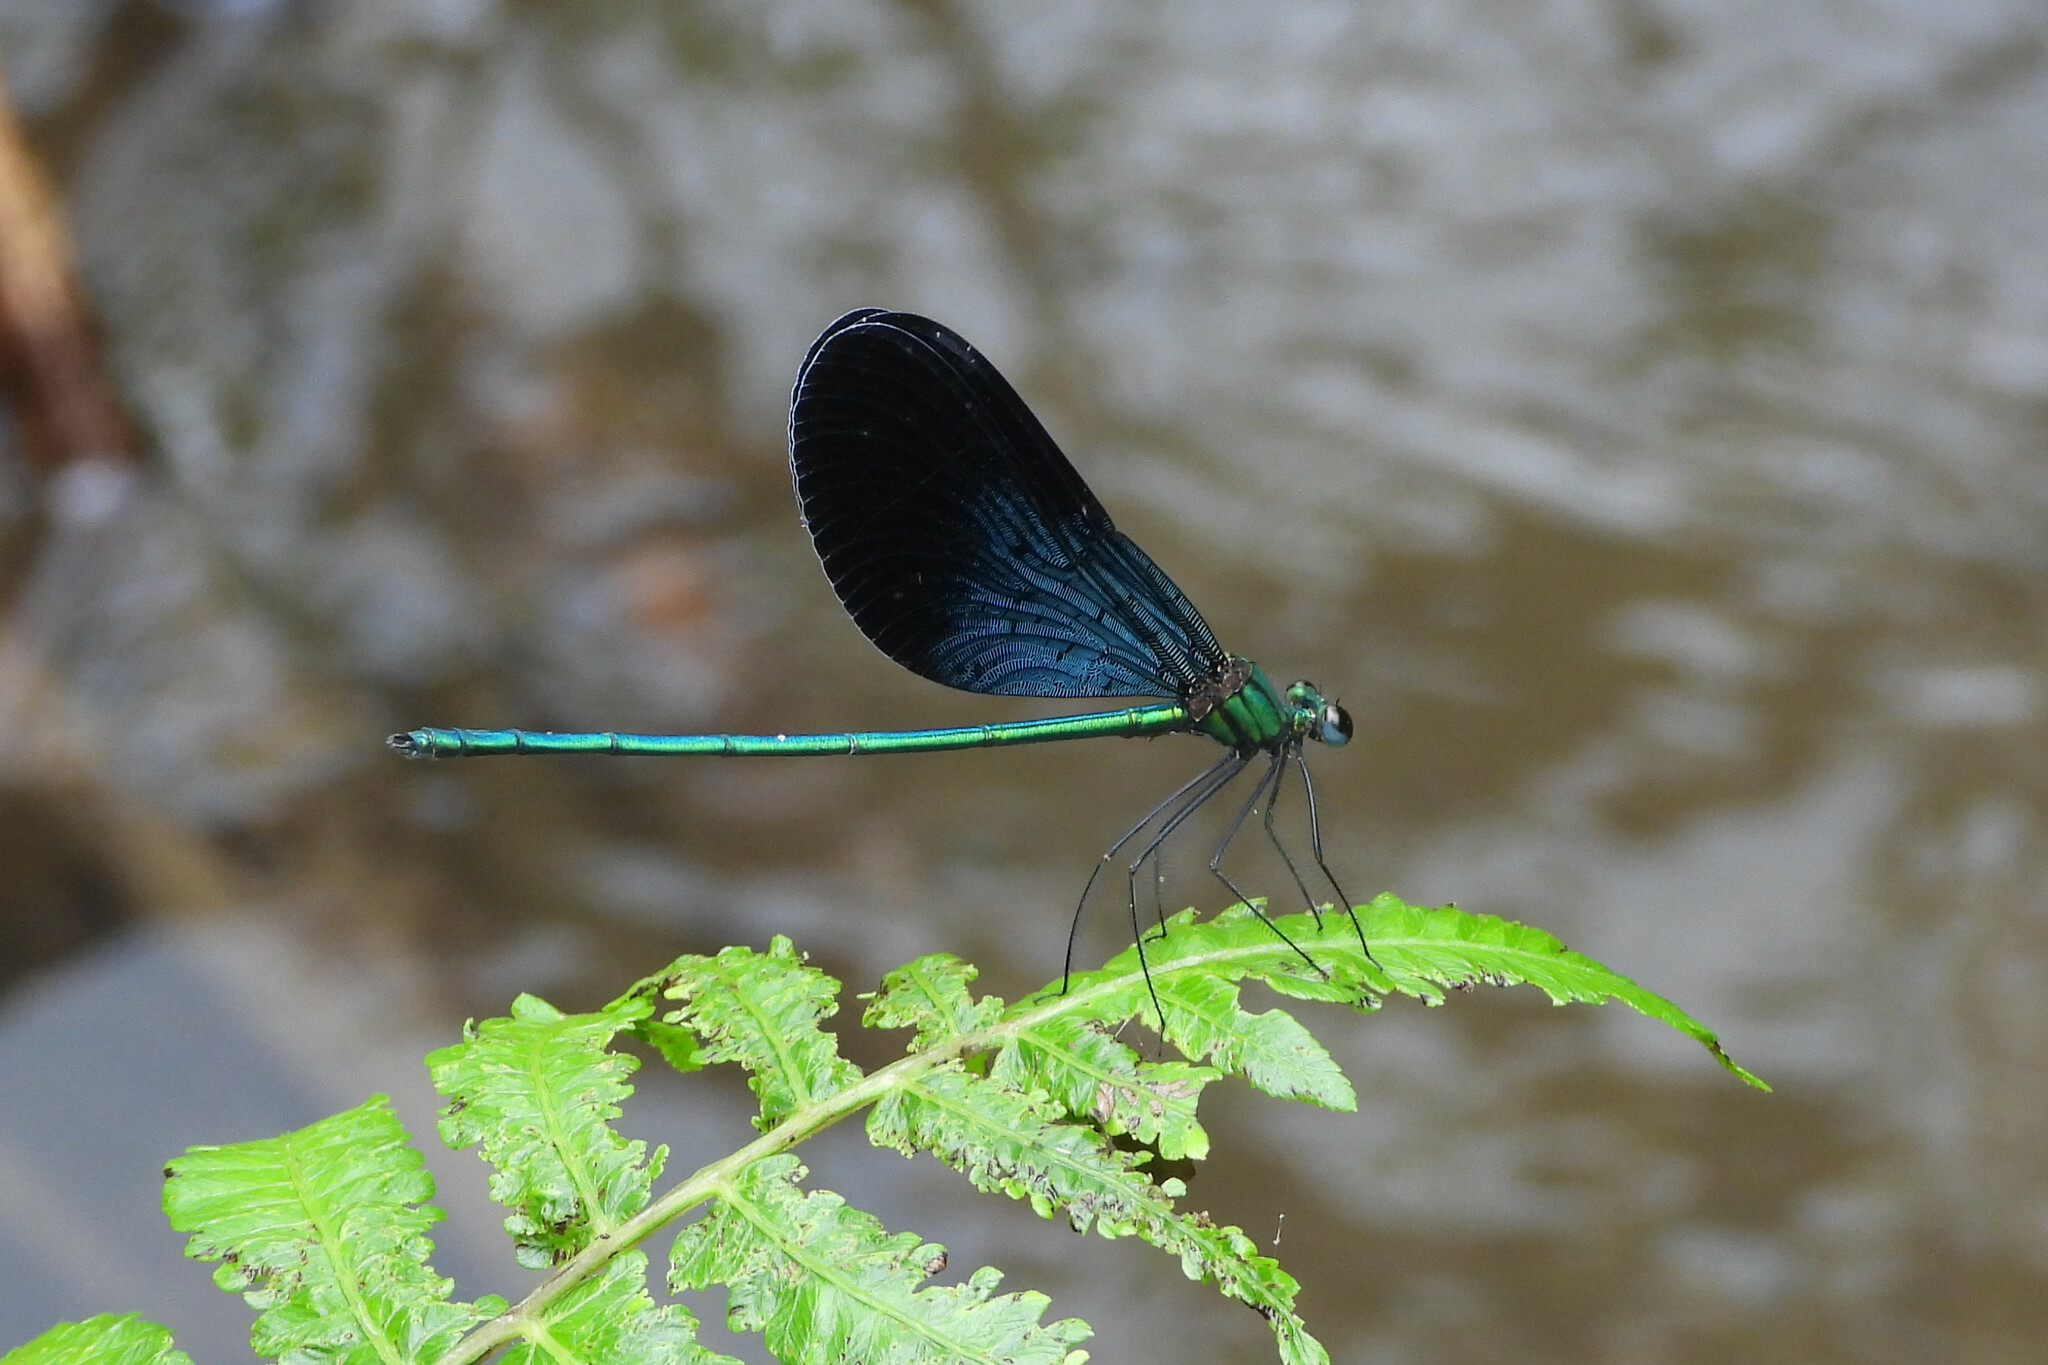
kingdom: Animalia
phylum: Arthropoda
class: Insecta
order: Odonata
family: Calopterygidae
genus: Matrona
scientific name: Matrona nigripectus
